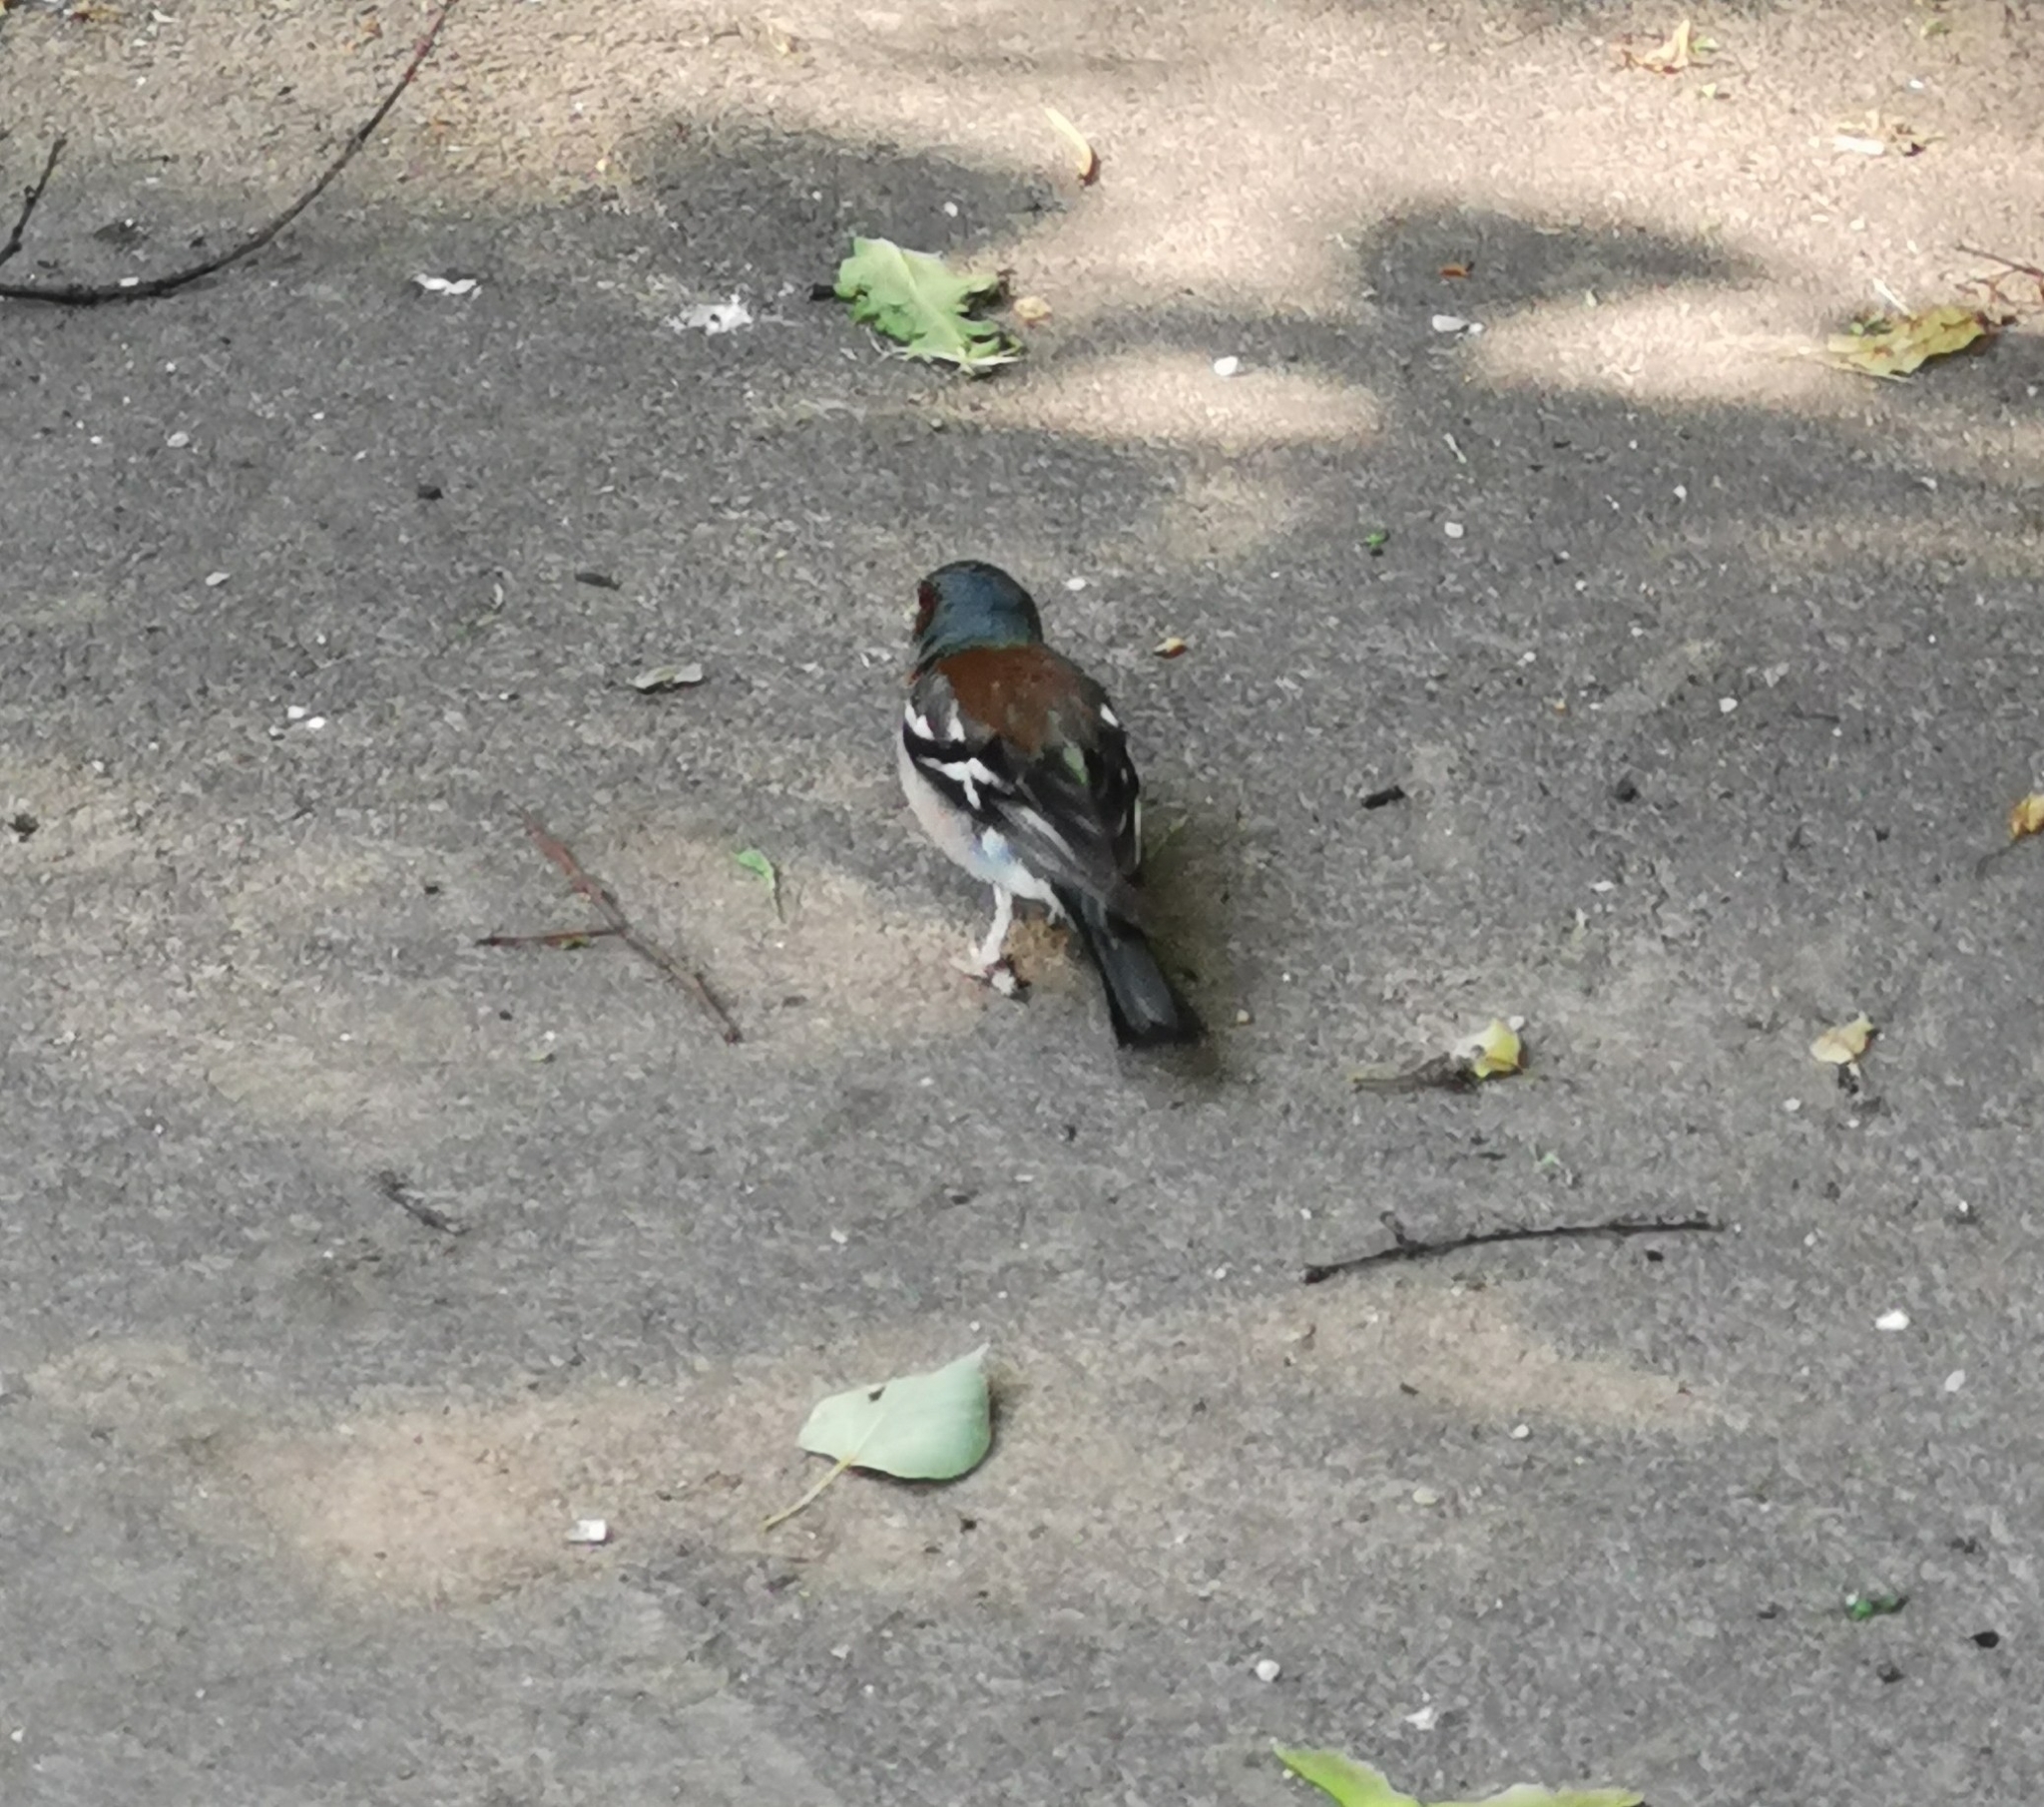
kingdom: Animalia
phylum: Chordata
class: Aves
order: Passeriformes
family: Fringillidae
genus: Fringilla
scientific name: Fringilla coelebs
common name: Common chaffinch
